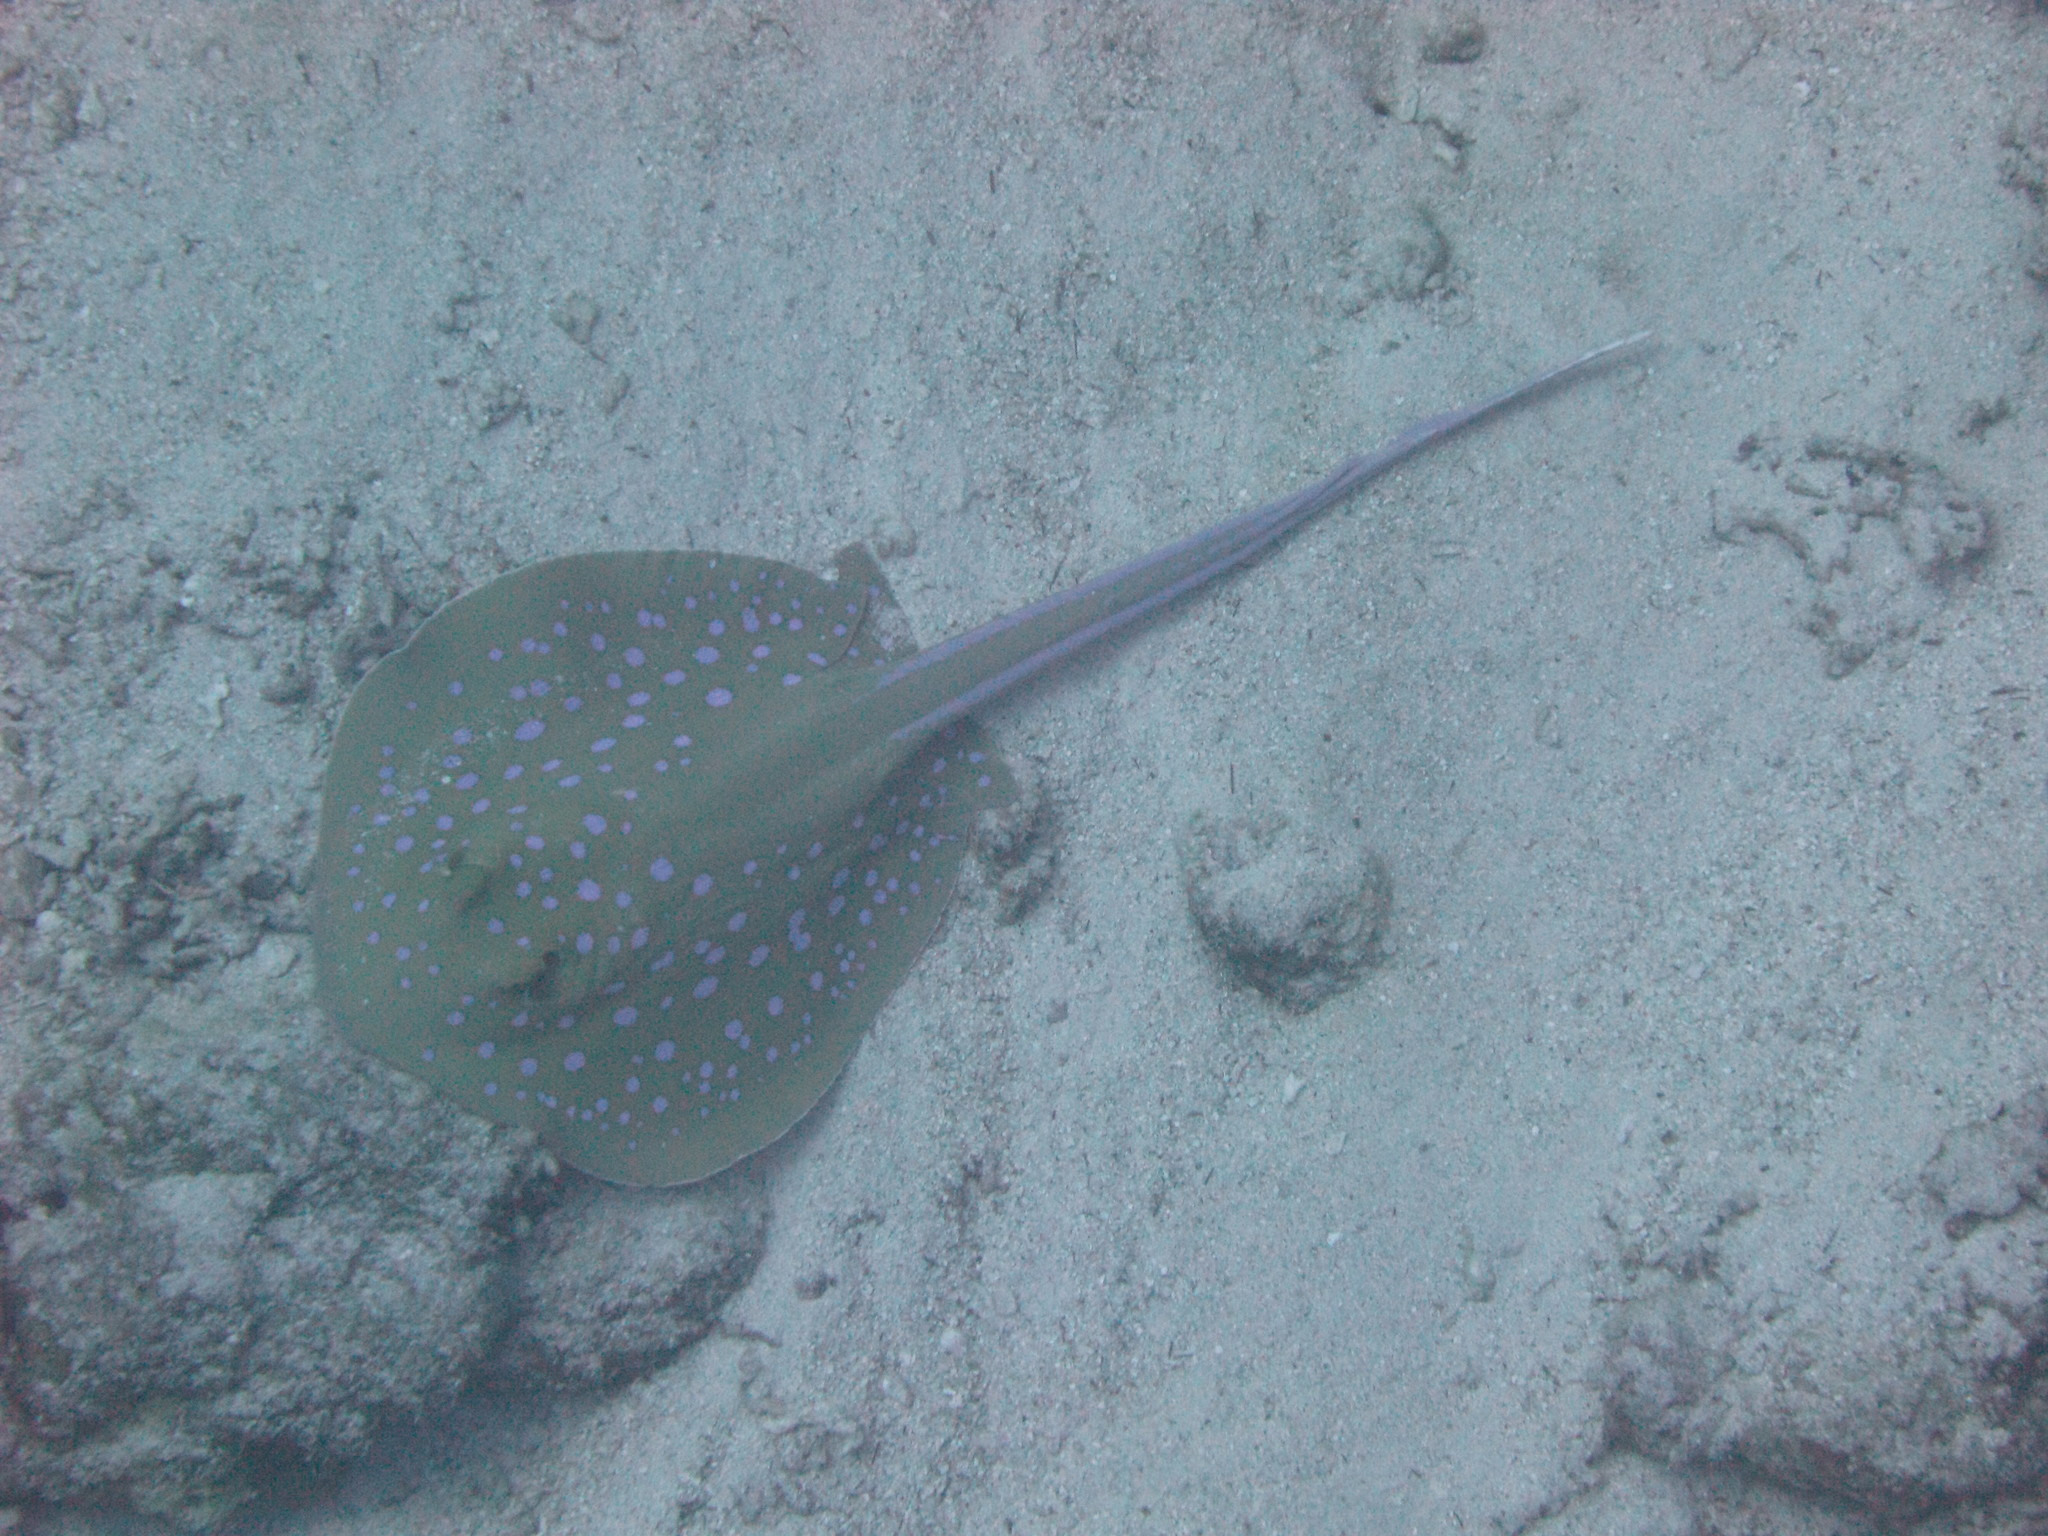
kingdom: Animalia
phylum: Chordata
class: Elasmobranchii
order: Myliobatiformes
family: Dasyatidae
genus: Taeniura
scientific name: Taeniura lymma
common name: Bluespotted ribbontail ray
